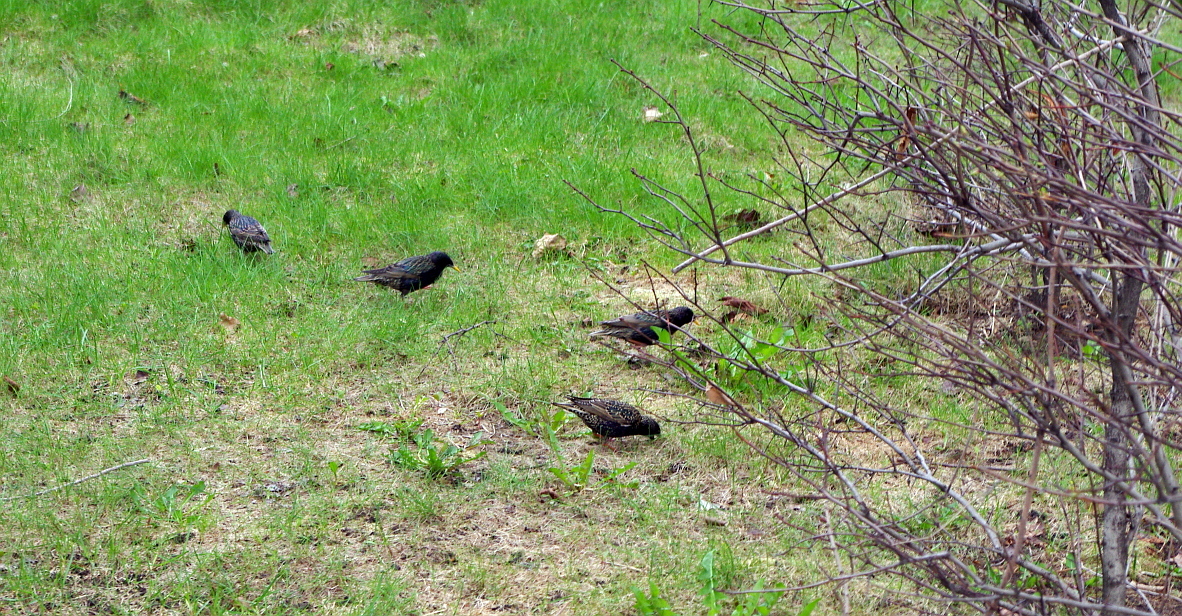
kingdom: Animalia
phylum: Chordata
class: Aves
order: Passeriformes
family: Sturnidae
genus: Sturnus
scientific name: Sturnus vulgaris
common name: Common starling
